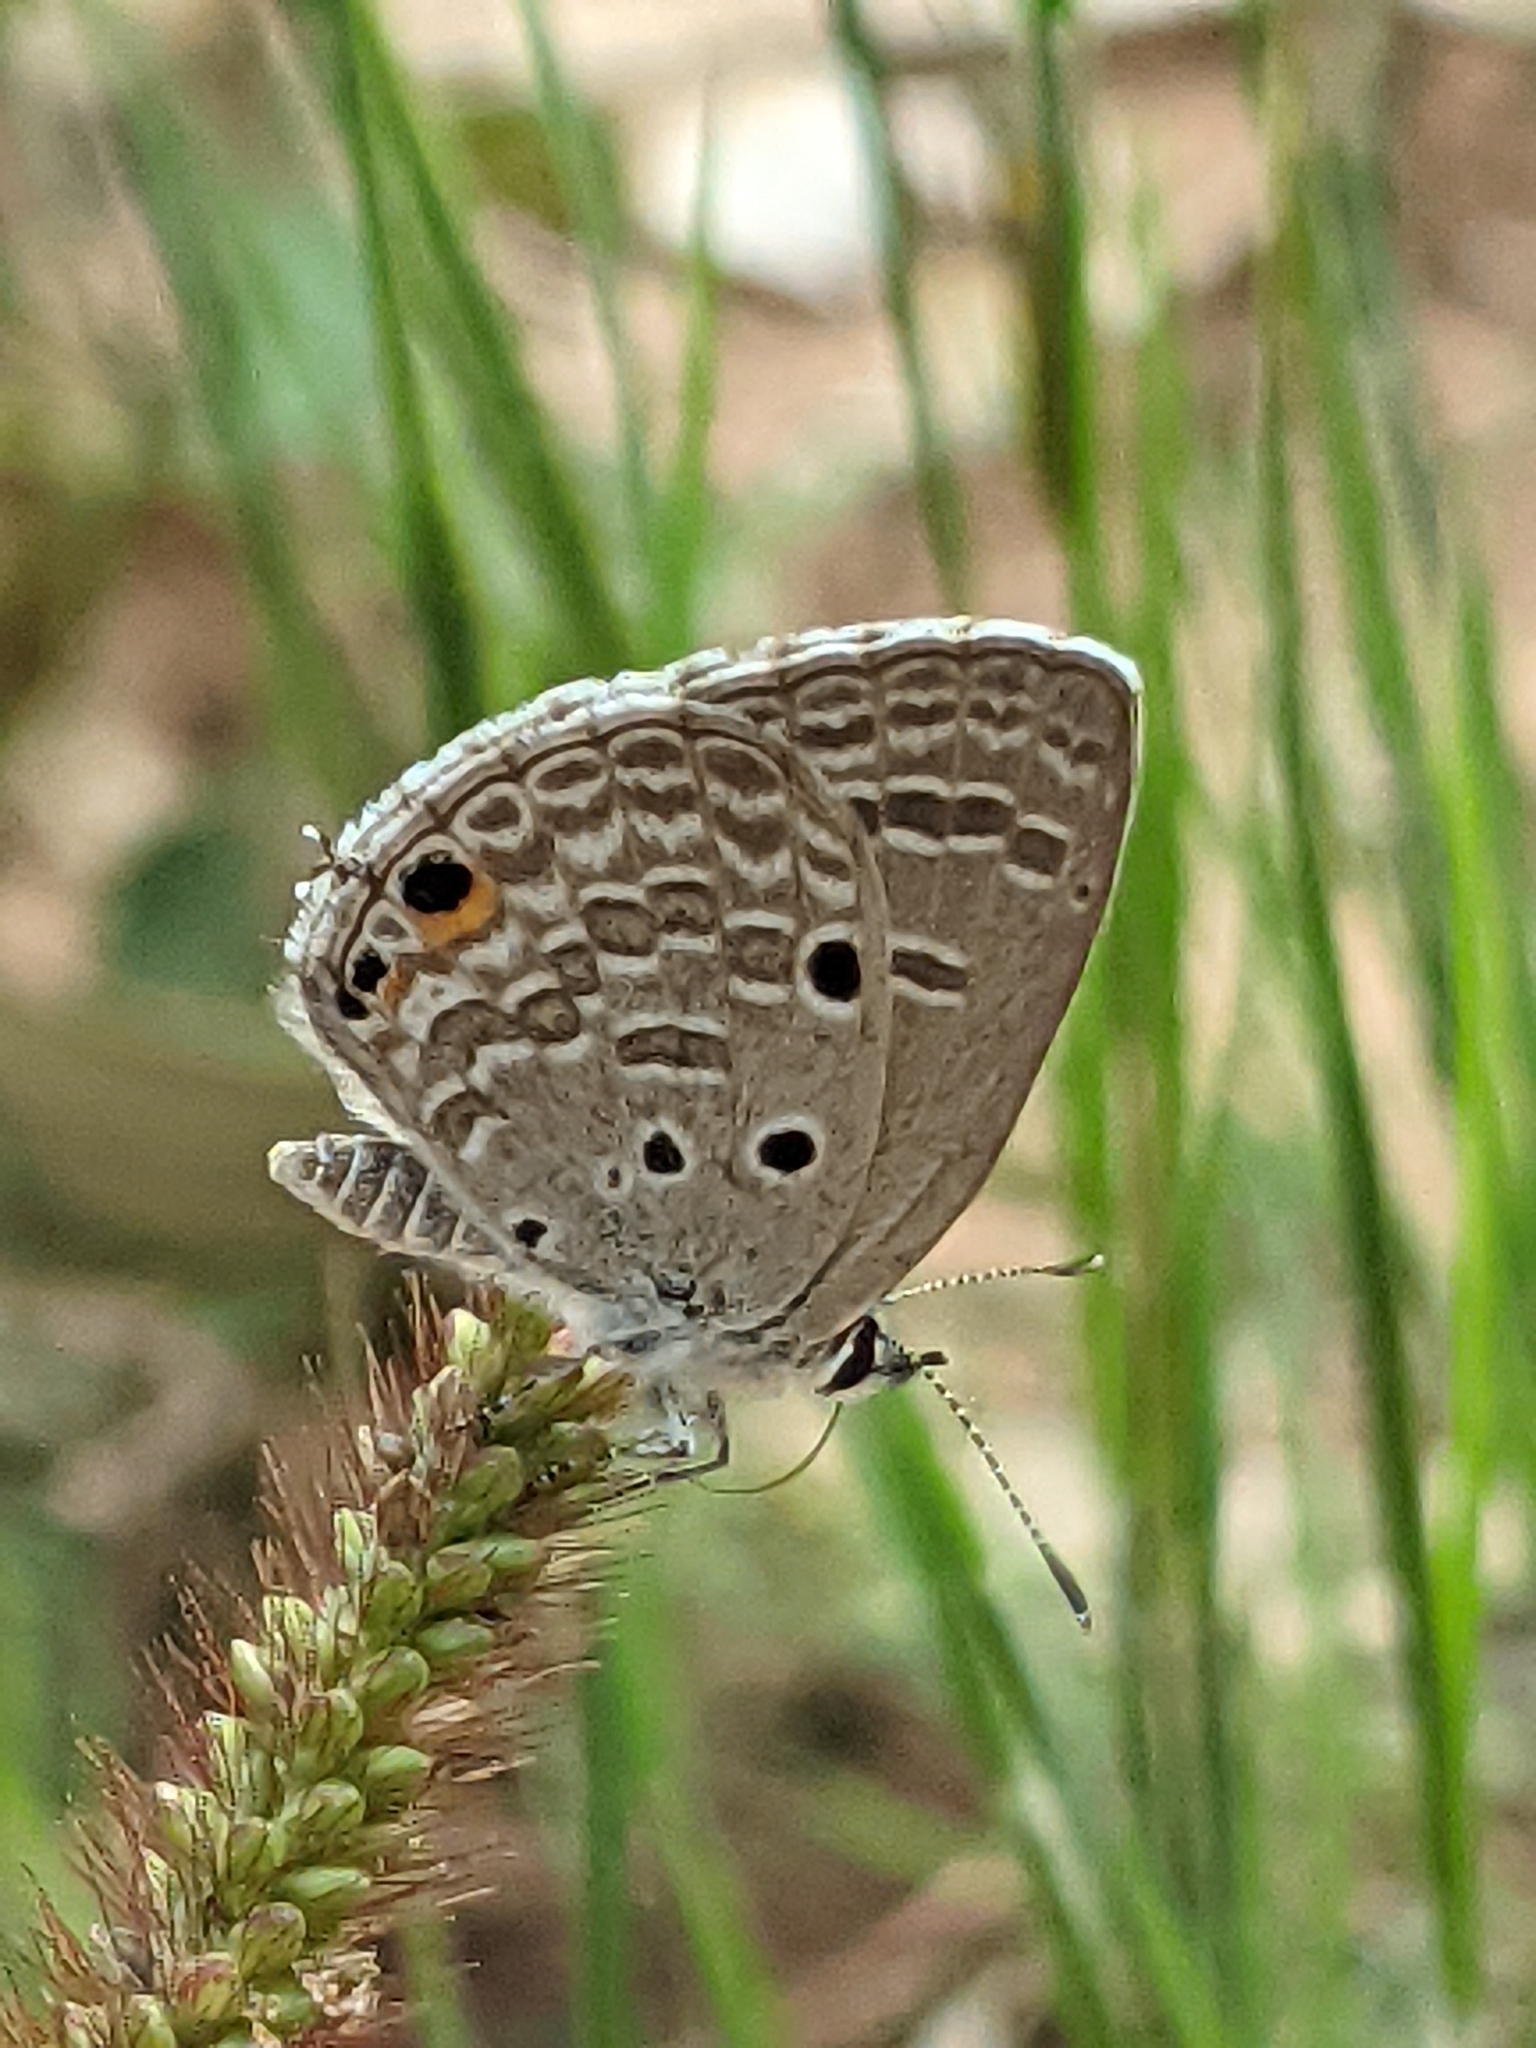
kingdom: Animalia
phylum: Arthropoda
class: Insecta
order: Lepidoptera
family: Lycaenidae
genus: Luthrodes
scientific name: Luthrodes pandava
